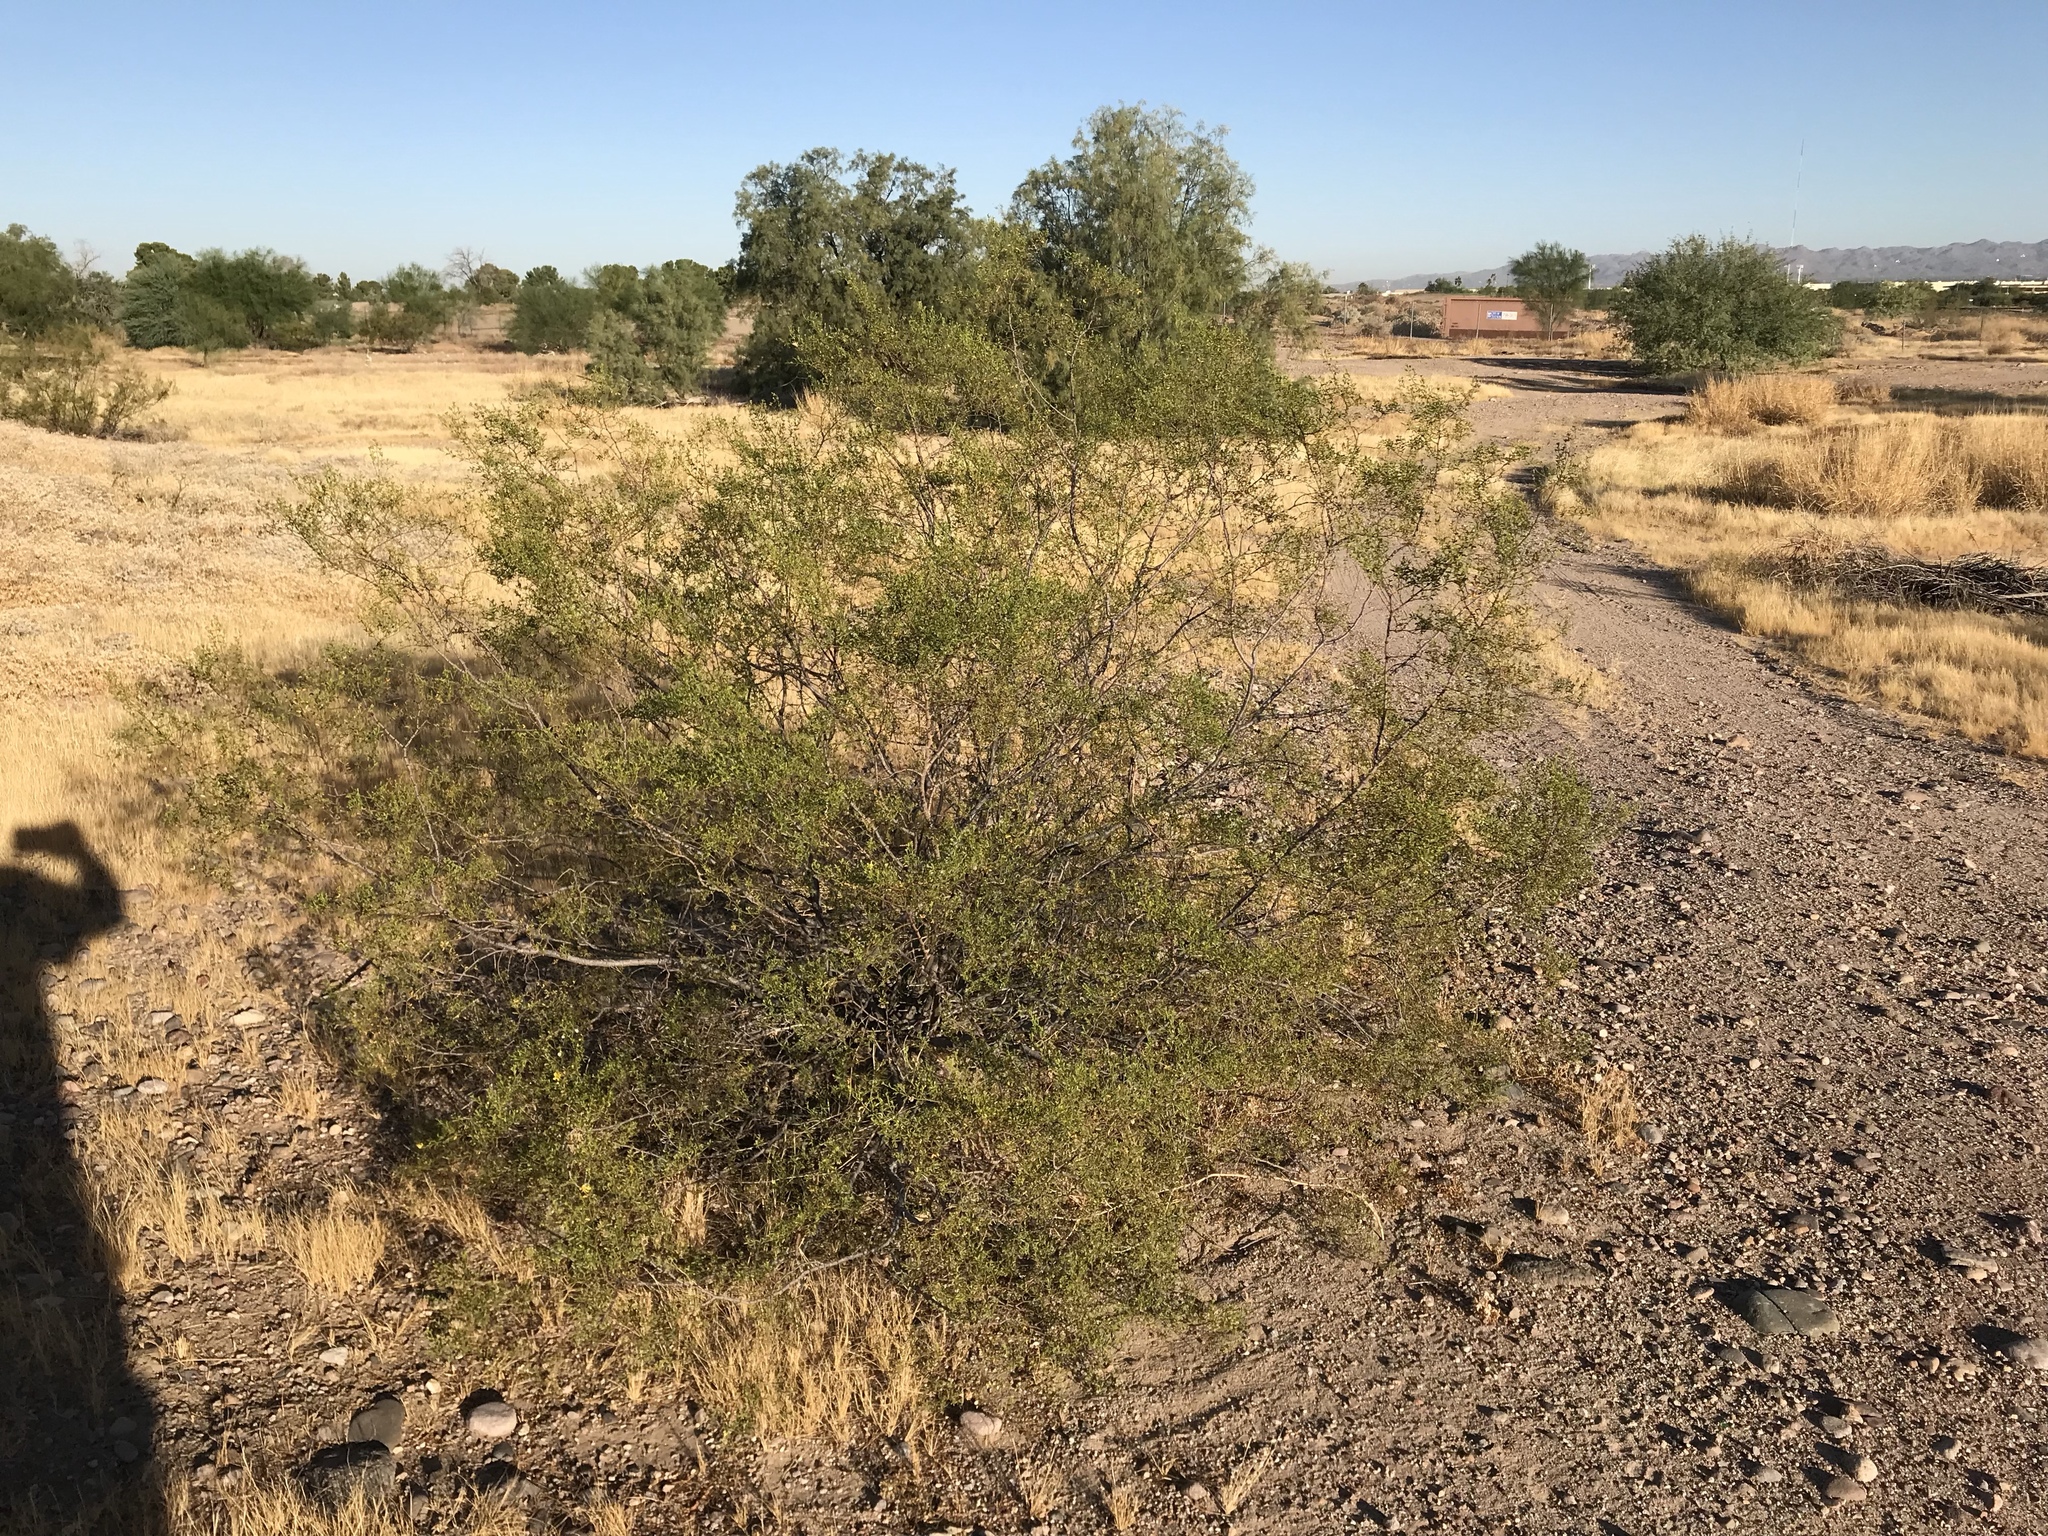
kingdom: Plantae
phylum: Tracheophyta
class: Magnoliopsida
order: Zygophyllales
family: Zygophyllaceae
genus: Larrea
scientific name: Larrea tridentata
